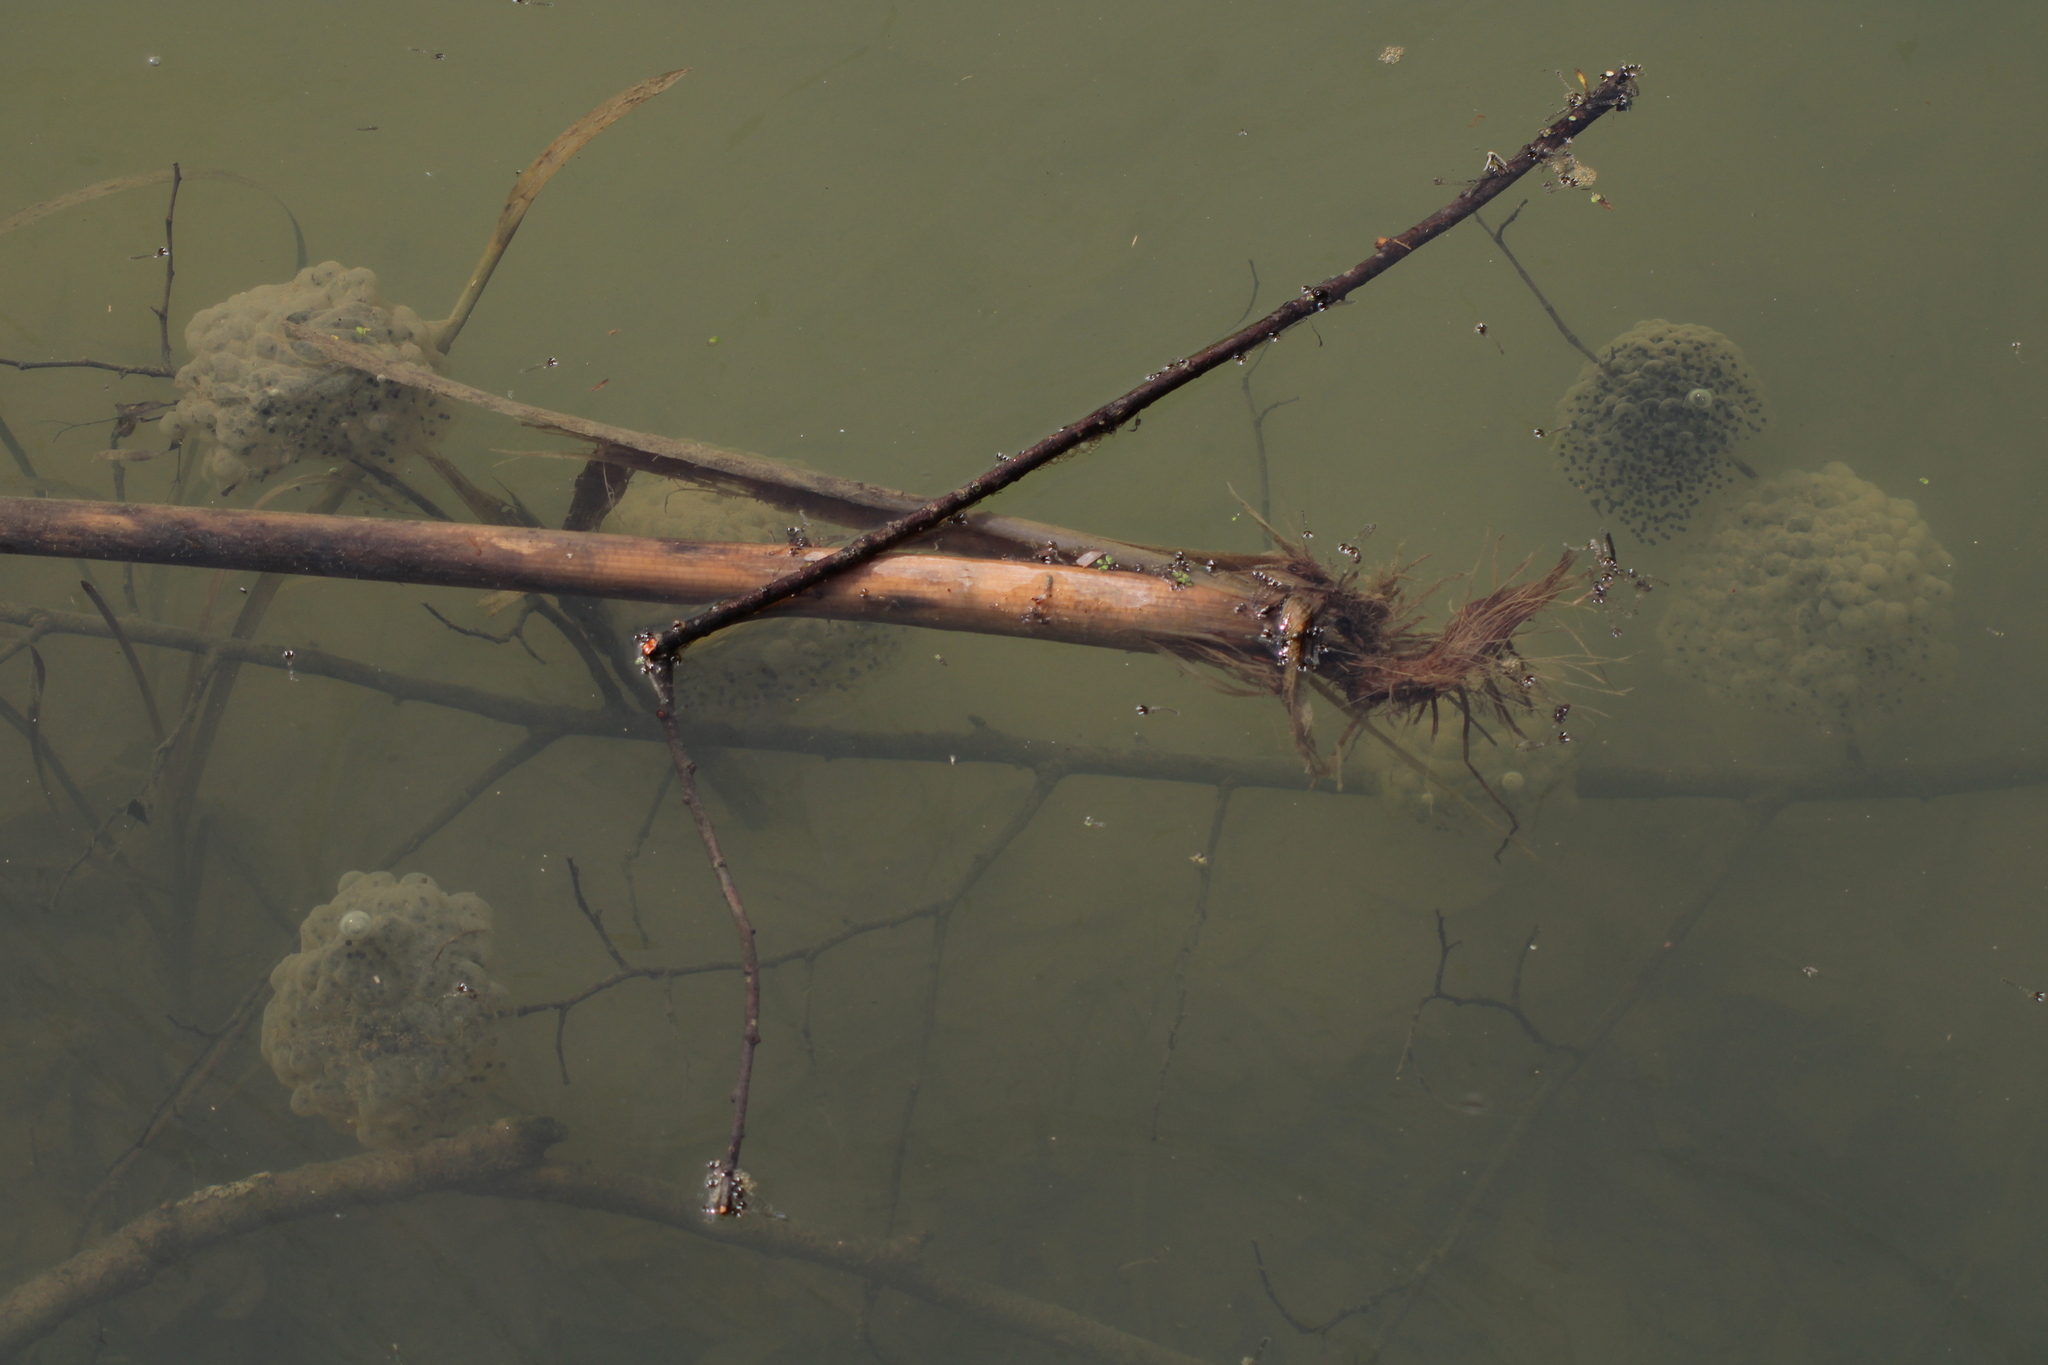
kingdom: Animalia
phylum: Chordata
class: Amphibia
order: Anura
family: Ranidae
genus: Rana
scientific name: Rana dalmatina
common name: Agile frog
